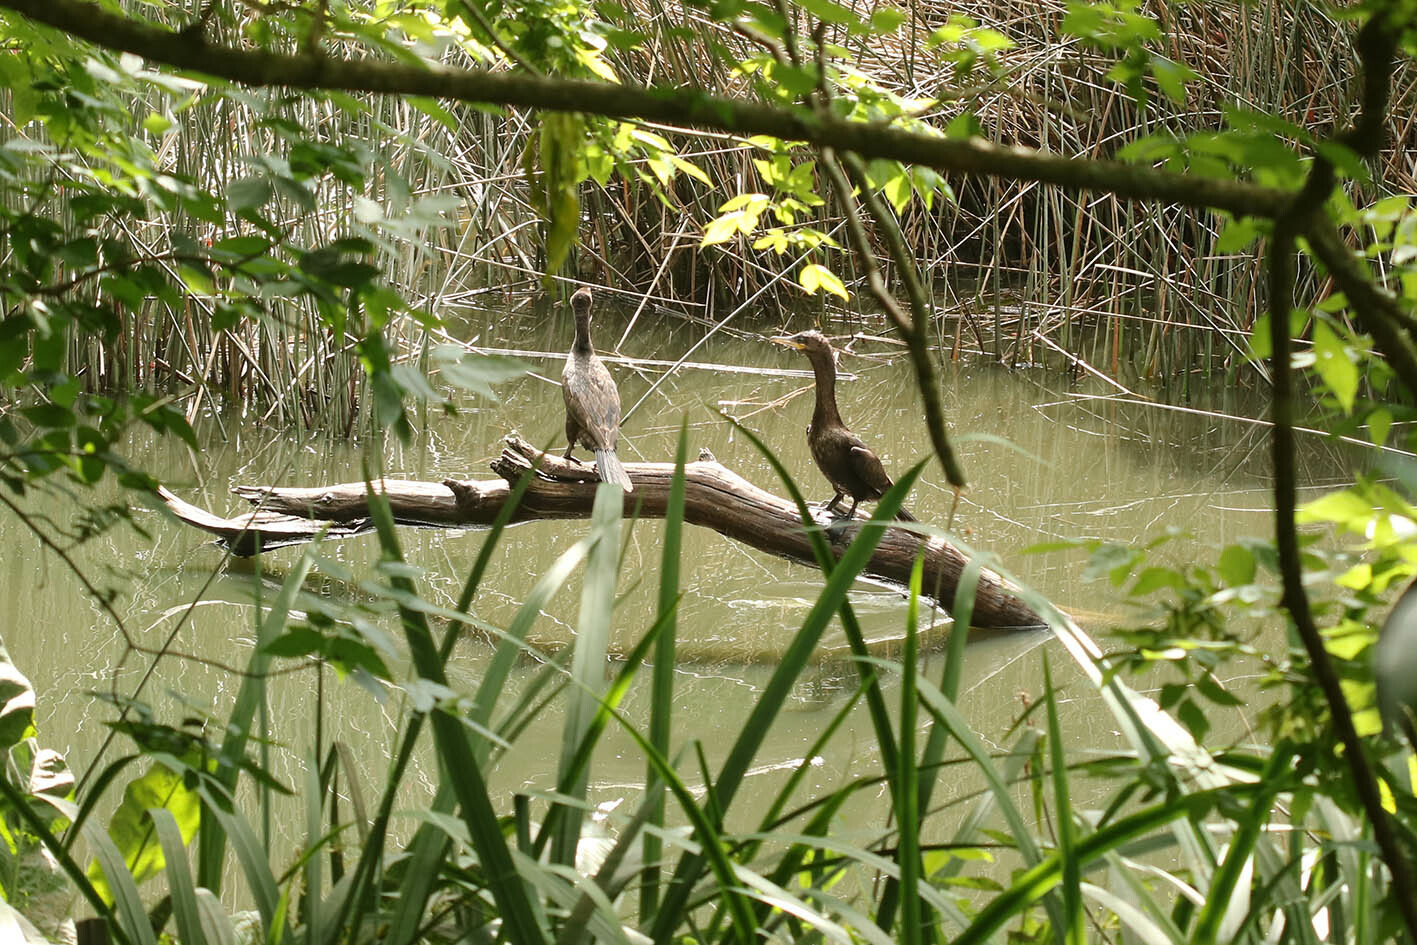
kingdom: Animalia
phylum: Chordata
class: Aves
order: Suliformes
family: Phalacrocoracidae
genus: Phalacrocorax
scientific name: Phalacrocorax brasilianus
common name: Neotropic cormorant
